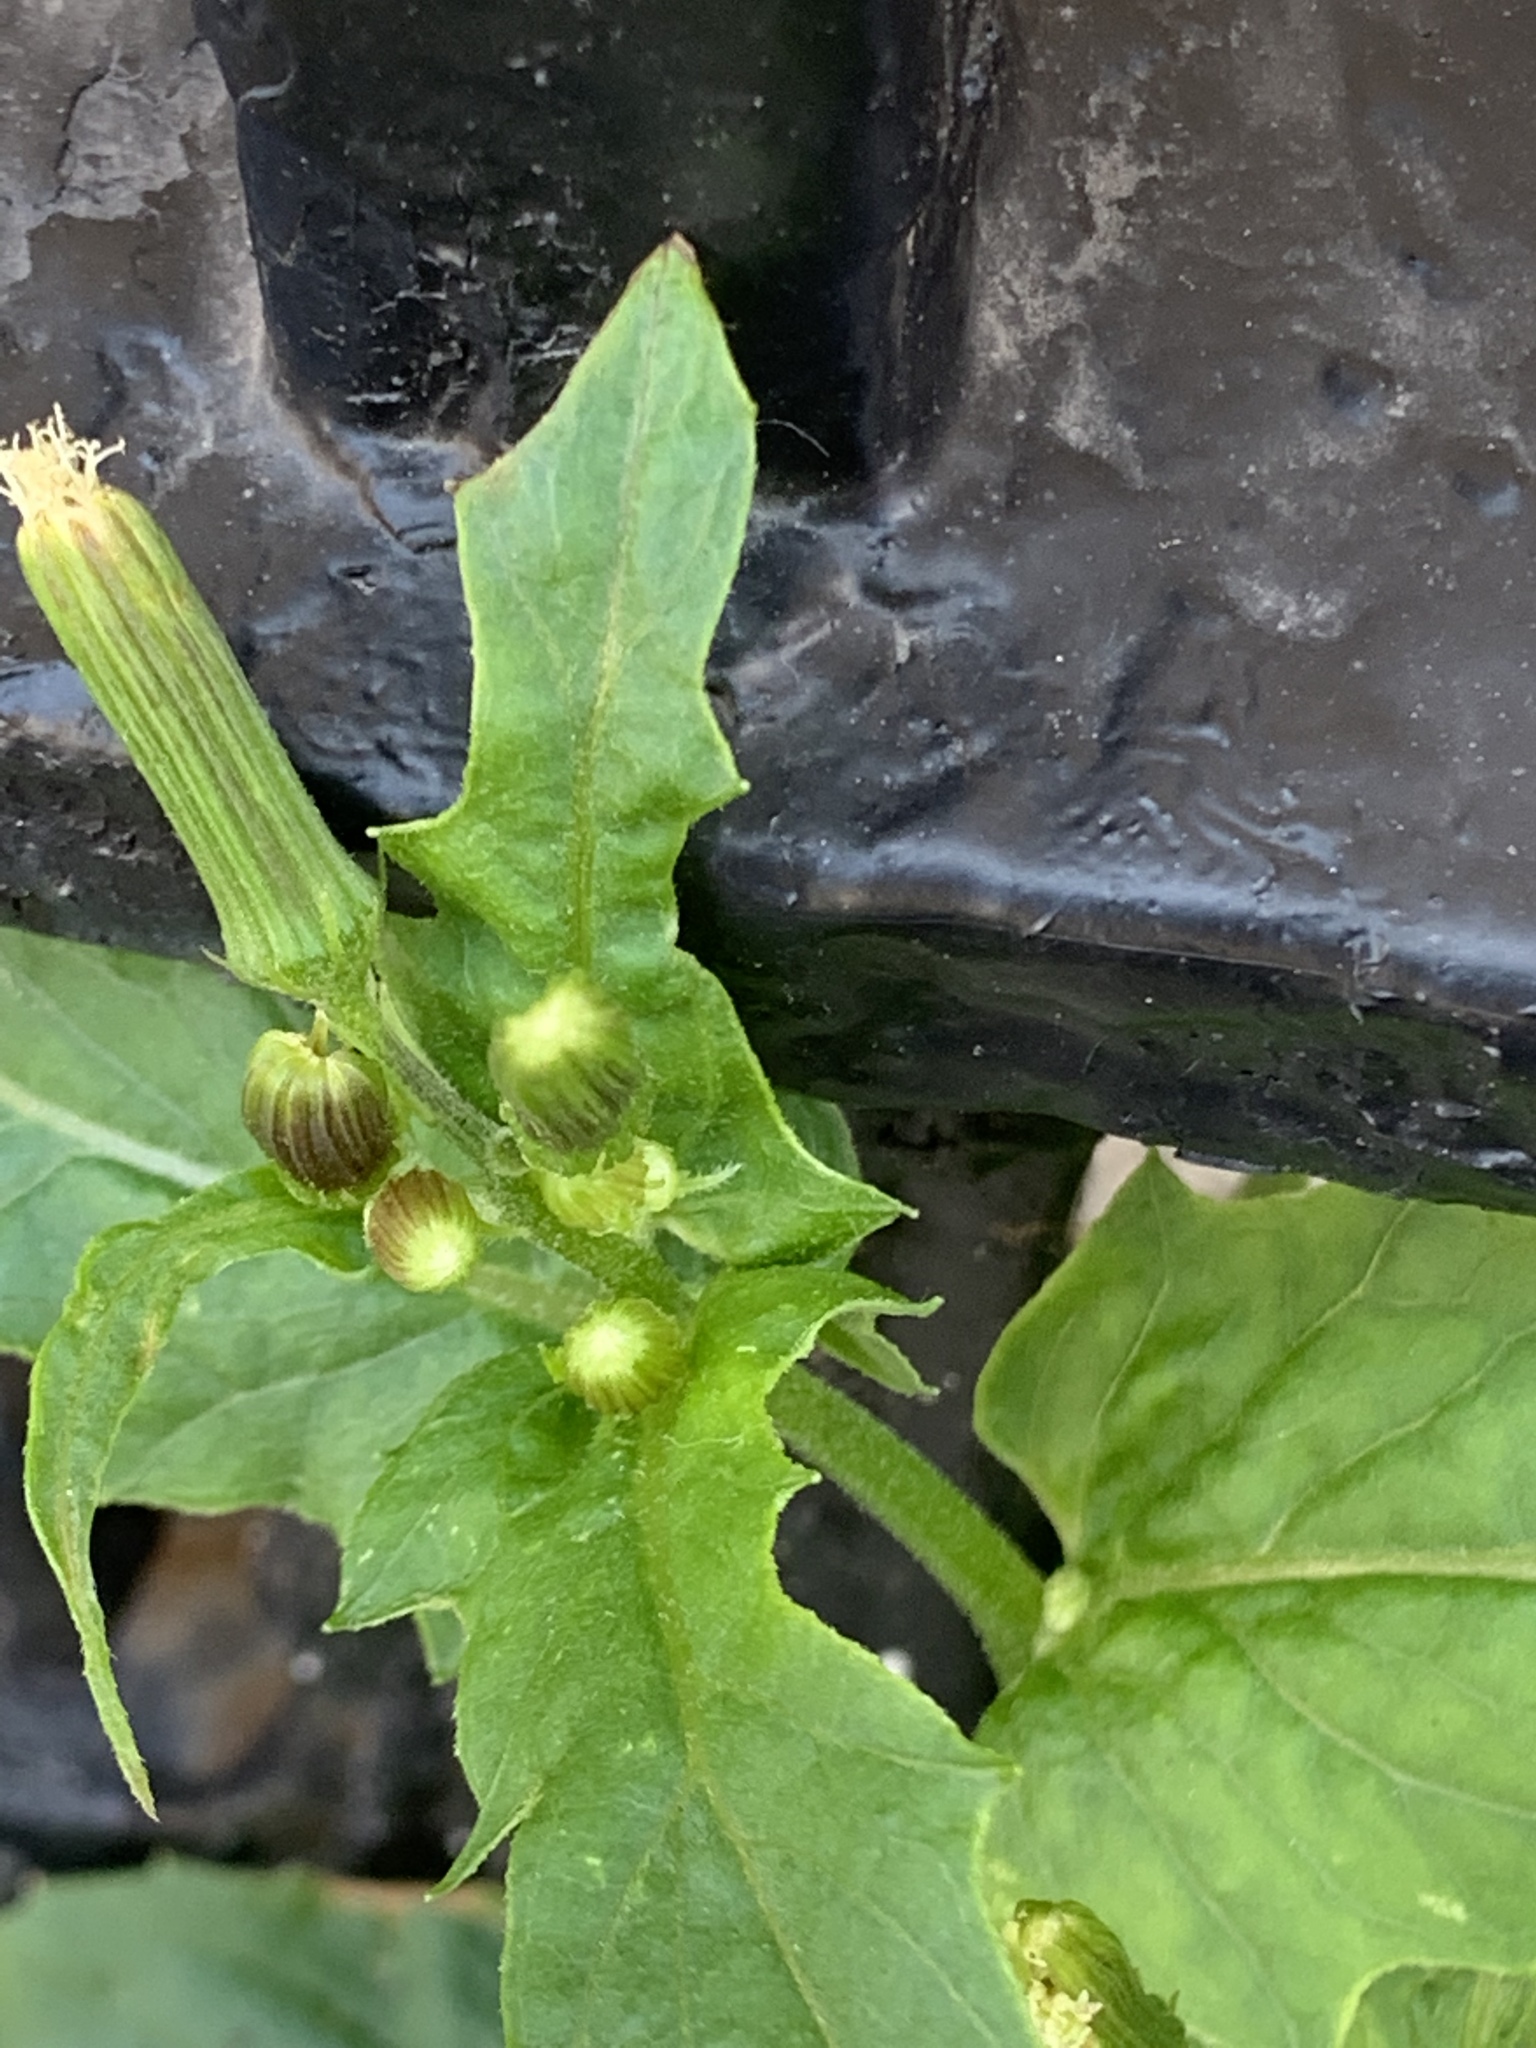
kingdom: Plantae
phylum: Tracheophyta
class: Magnoliopsida
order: Asterales
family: Asteraceae
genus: Erechtites
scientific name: Erechtites hieraciifolius
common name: American burnweed
